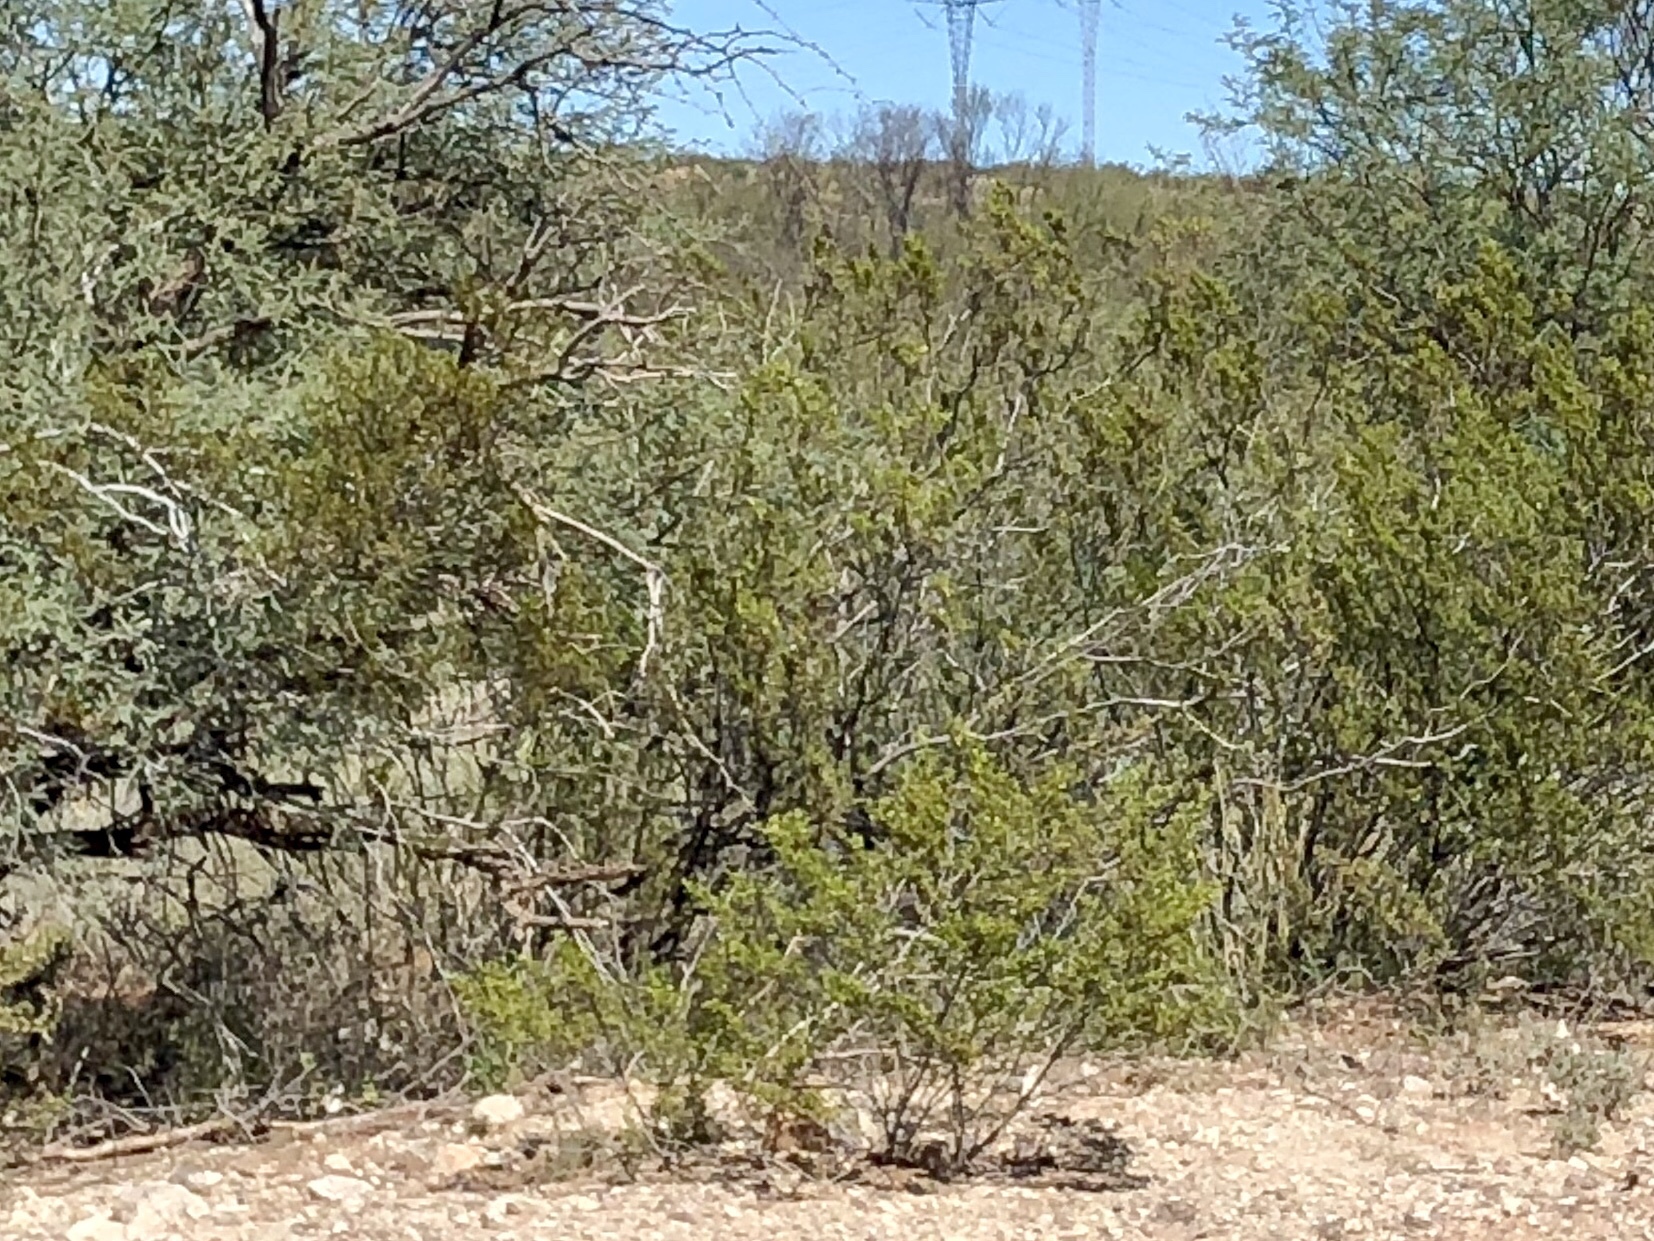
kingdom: Plantae
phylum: Tracheophyta
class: Magnoliopsida
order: Zygophyllales
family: Zygophyllaceae
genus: Larrea
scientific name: Larrea tridentata
